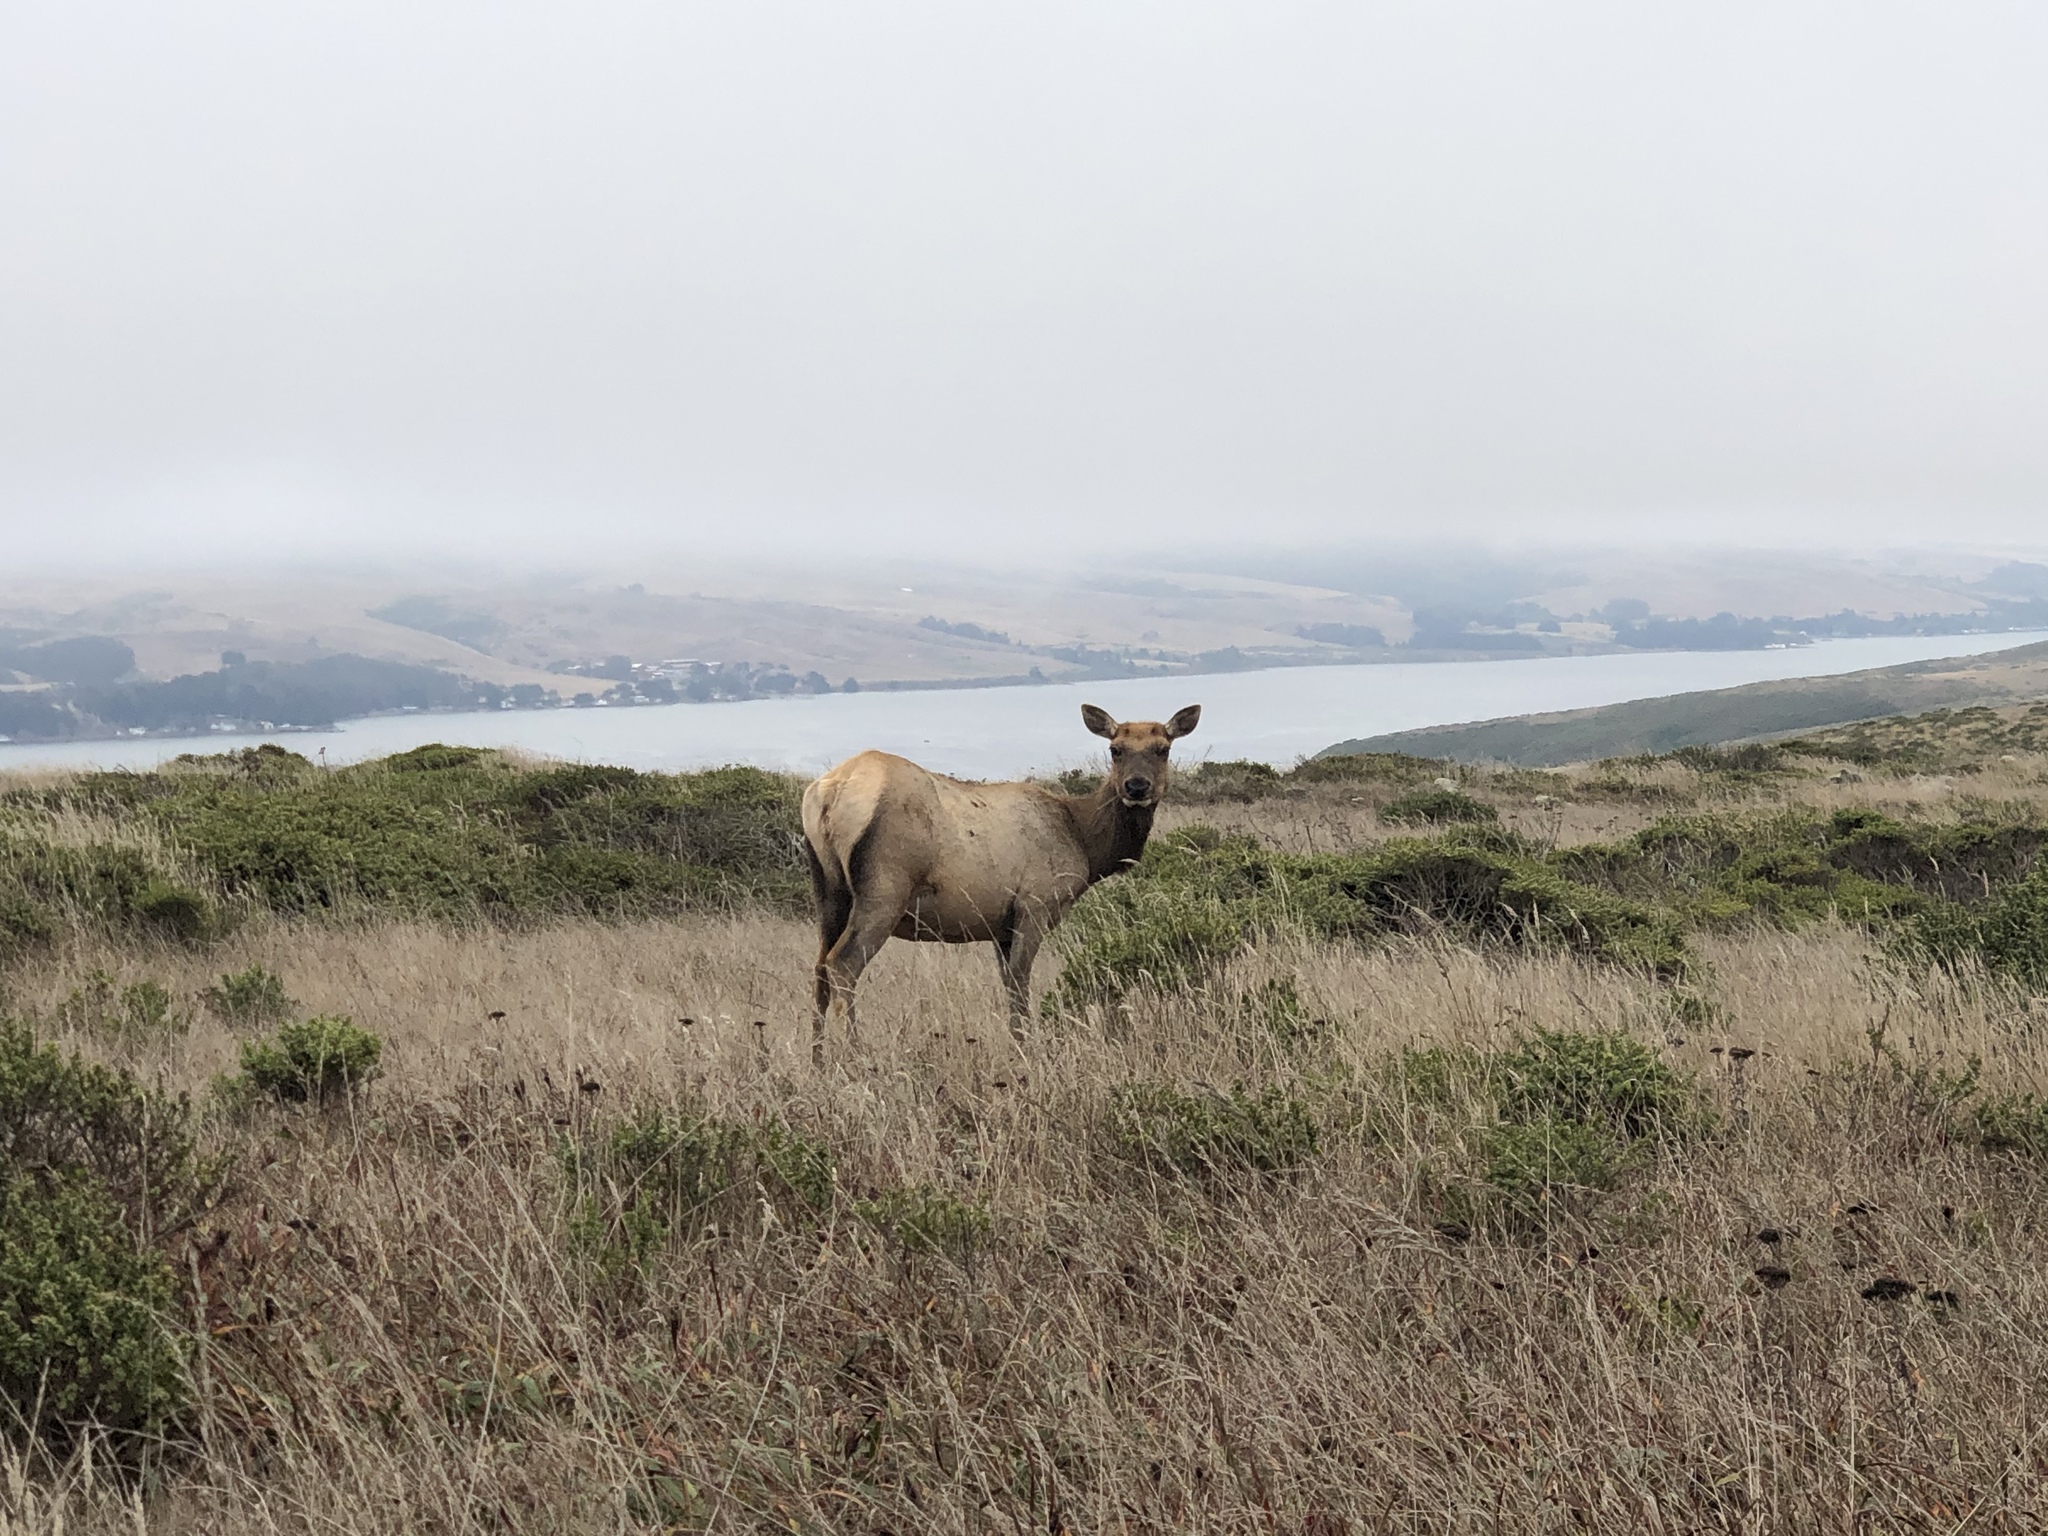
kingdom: Animalia
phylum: Chordata
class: Mammalia
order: Artiodactyla
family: Cervidae
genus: Cervus
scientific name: Cervus elaphus
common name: Red deer
